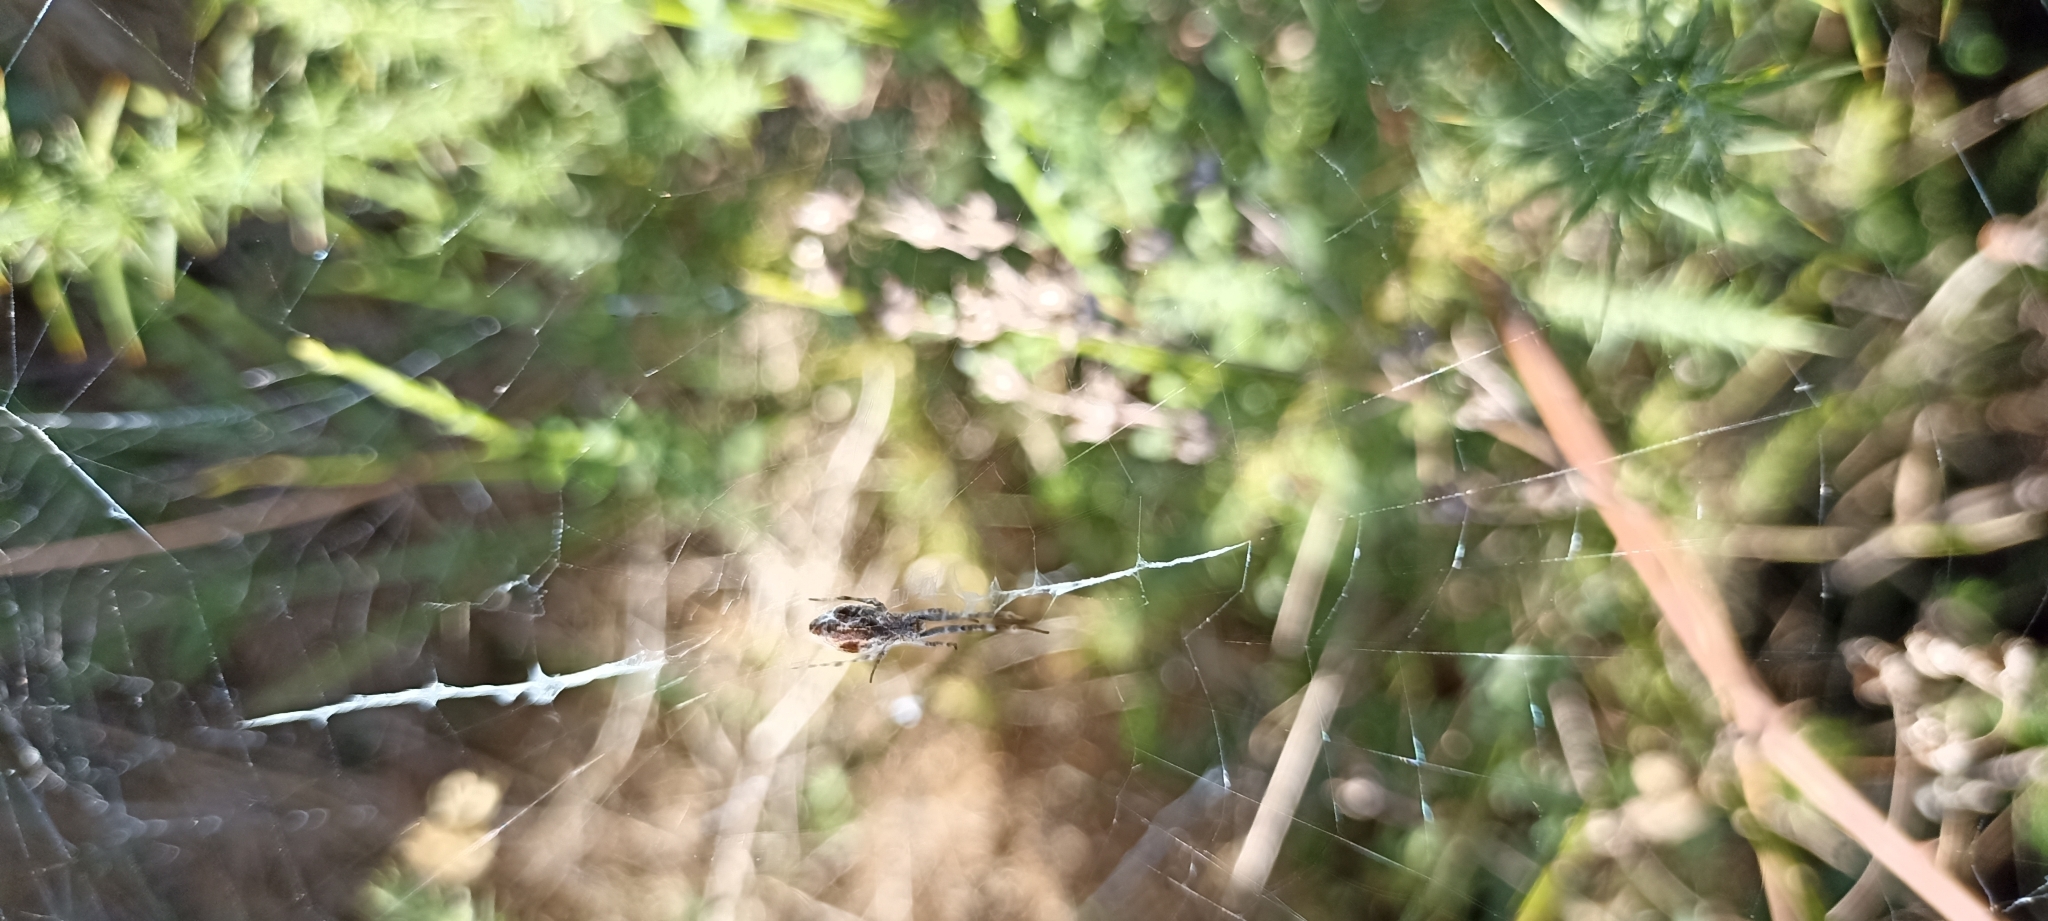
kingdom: Animalia
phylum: Arthropoda
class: Arachnida
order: Araneae
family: Uloboridae
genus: Uloborus
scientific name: Uloborus walckenaerius
